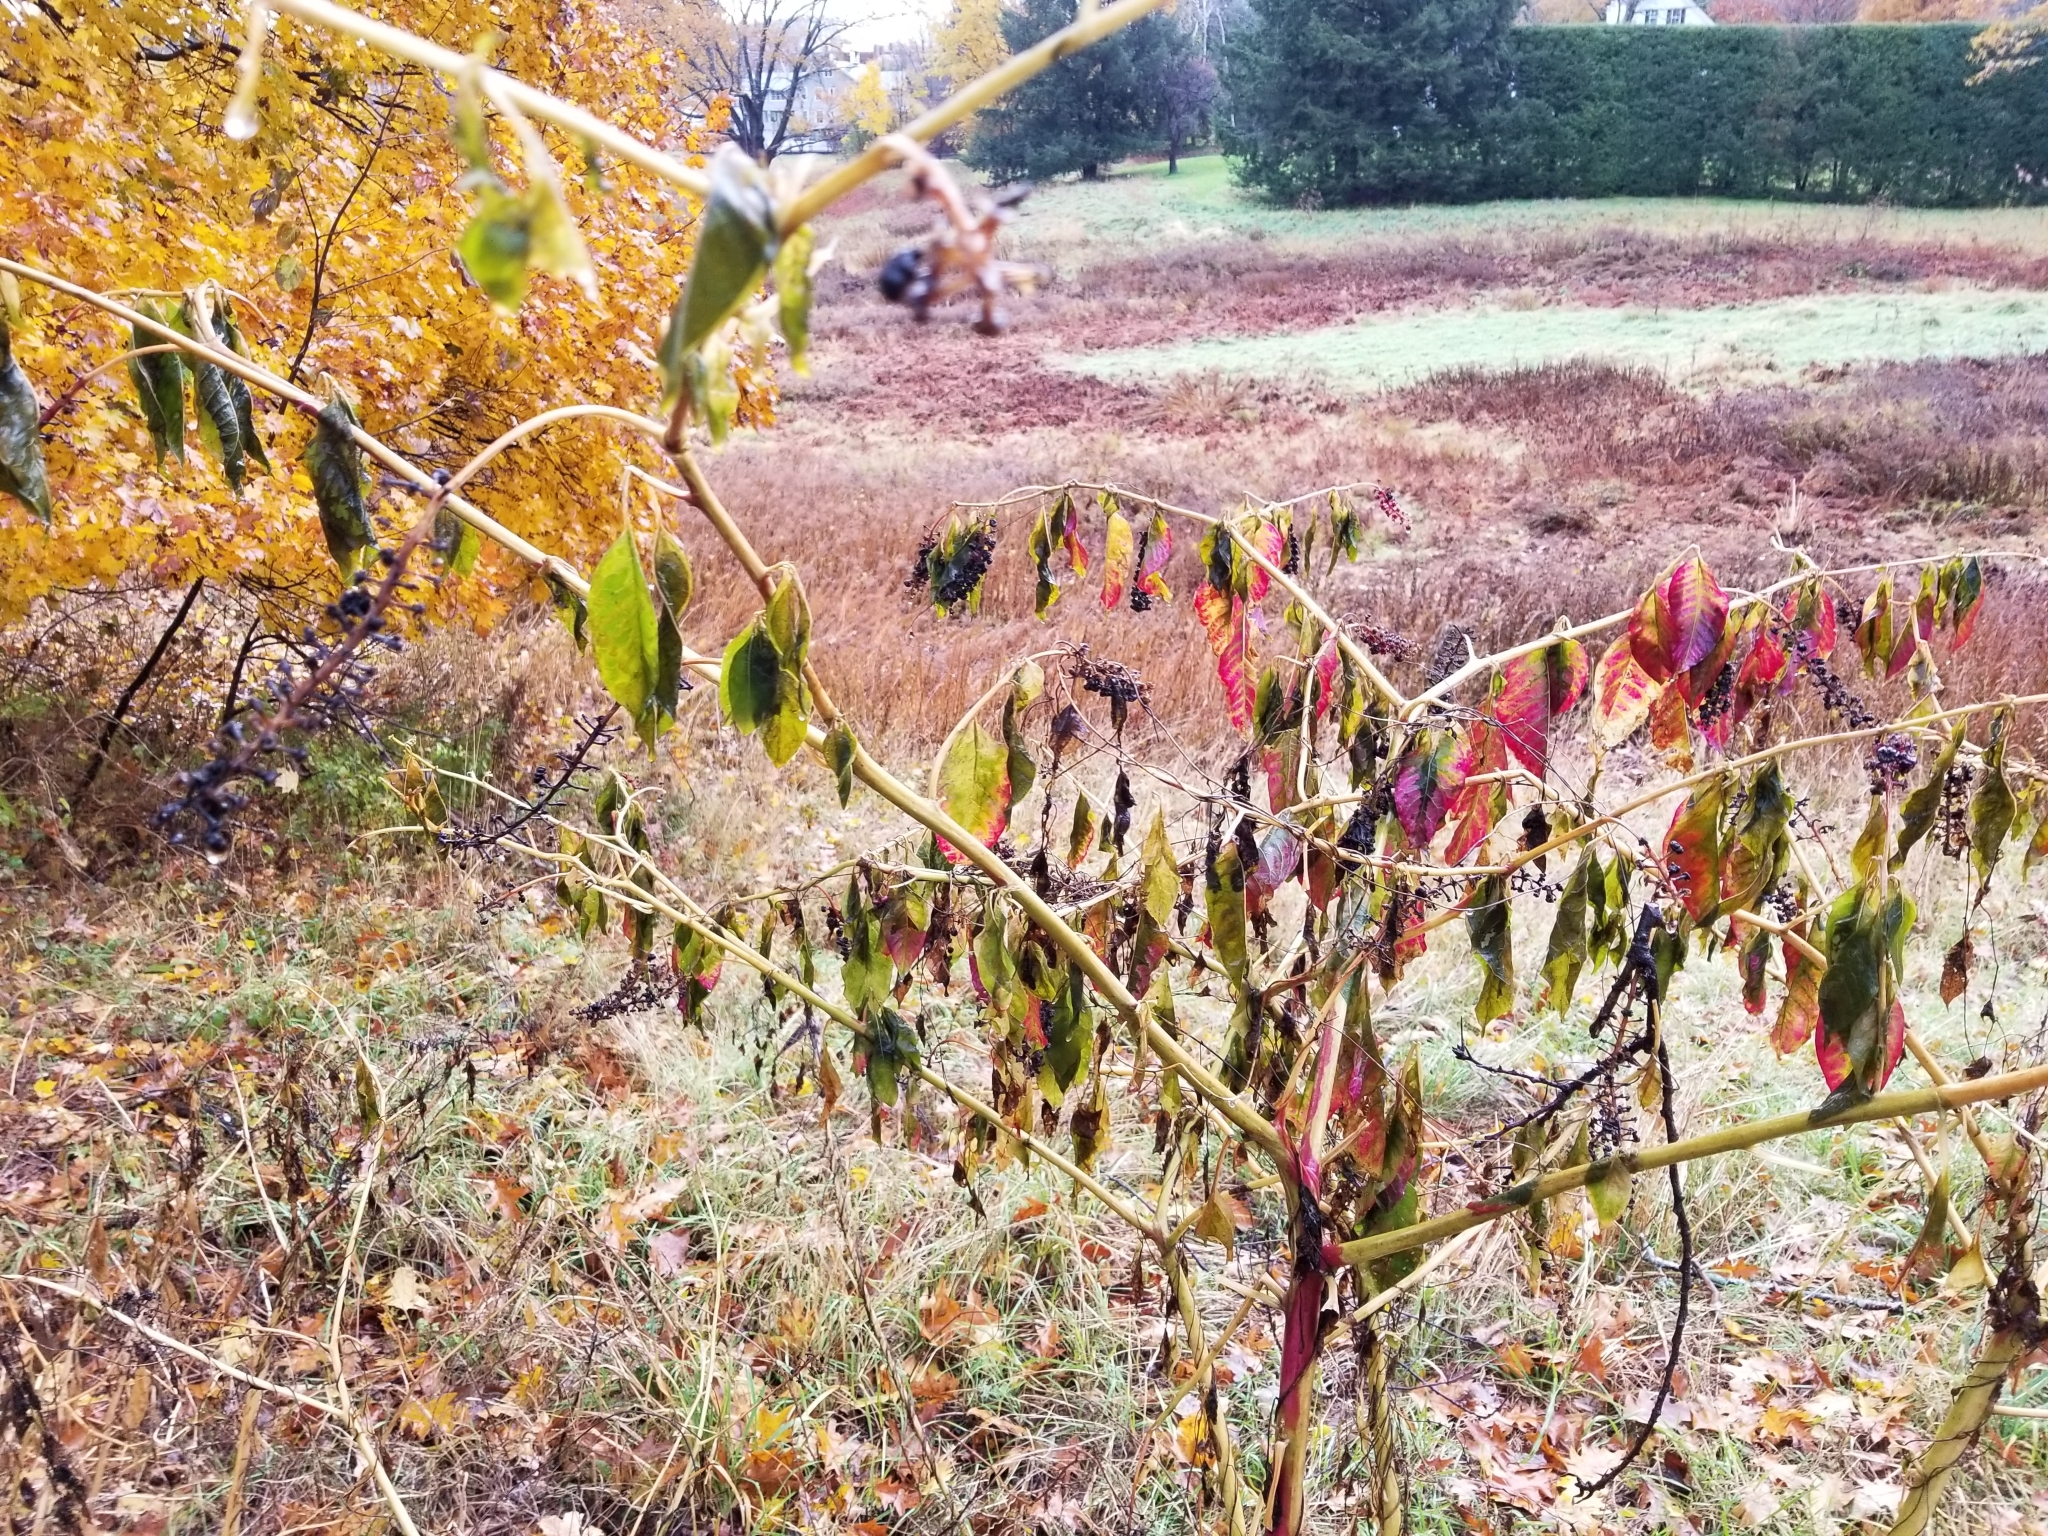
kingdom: Plantae
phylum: Tracheophyta
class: Magnoliopsida
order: Caryophyllales
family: Phytolaccaceae
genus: Phytolacca
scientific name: Phytolacca americana
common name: American pokeweed
